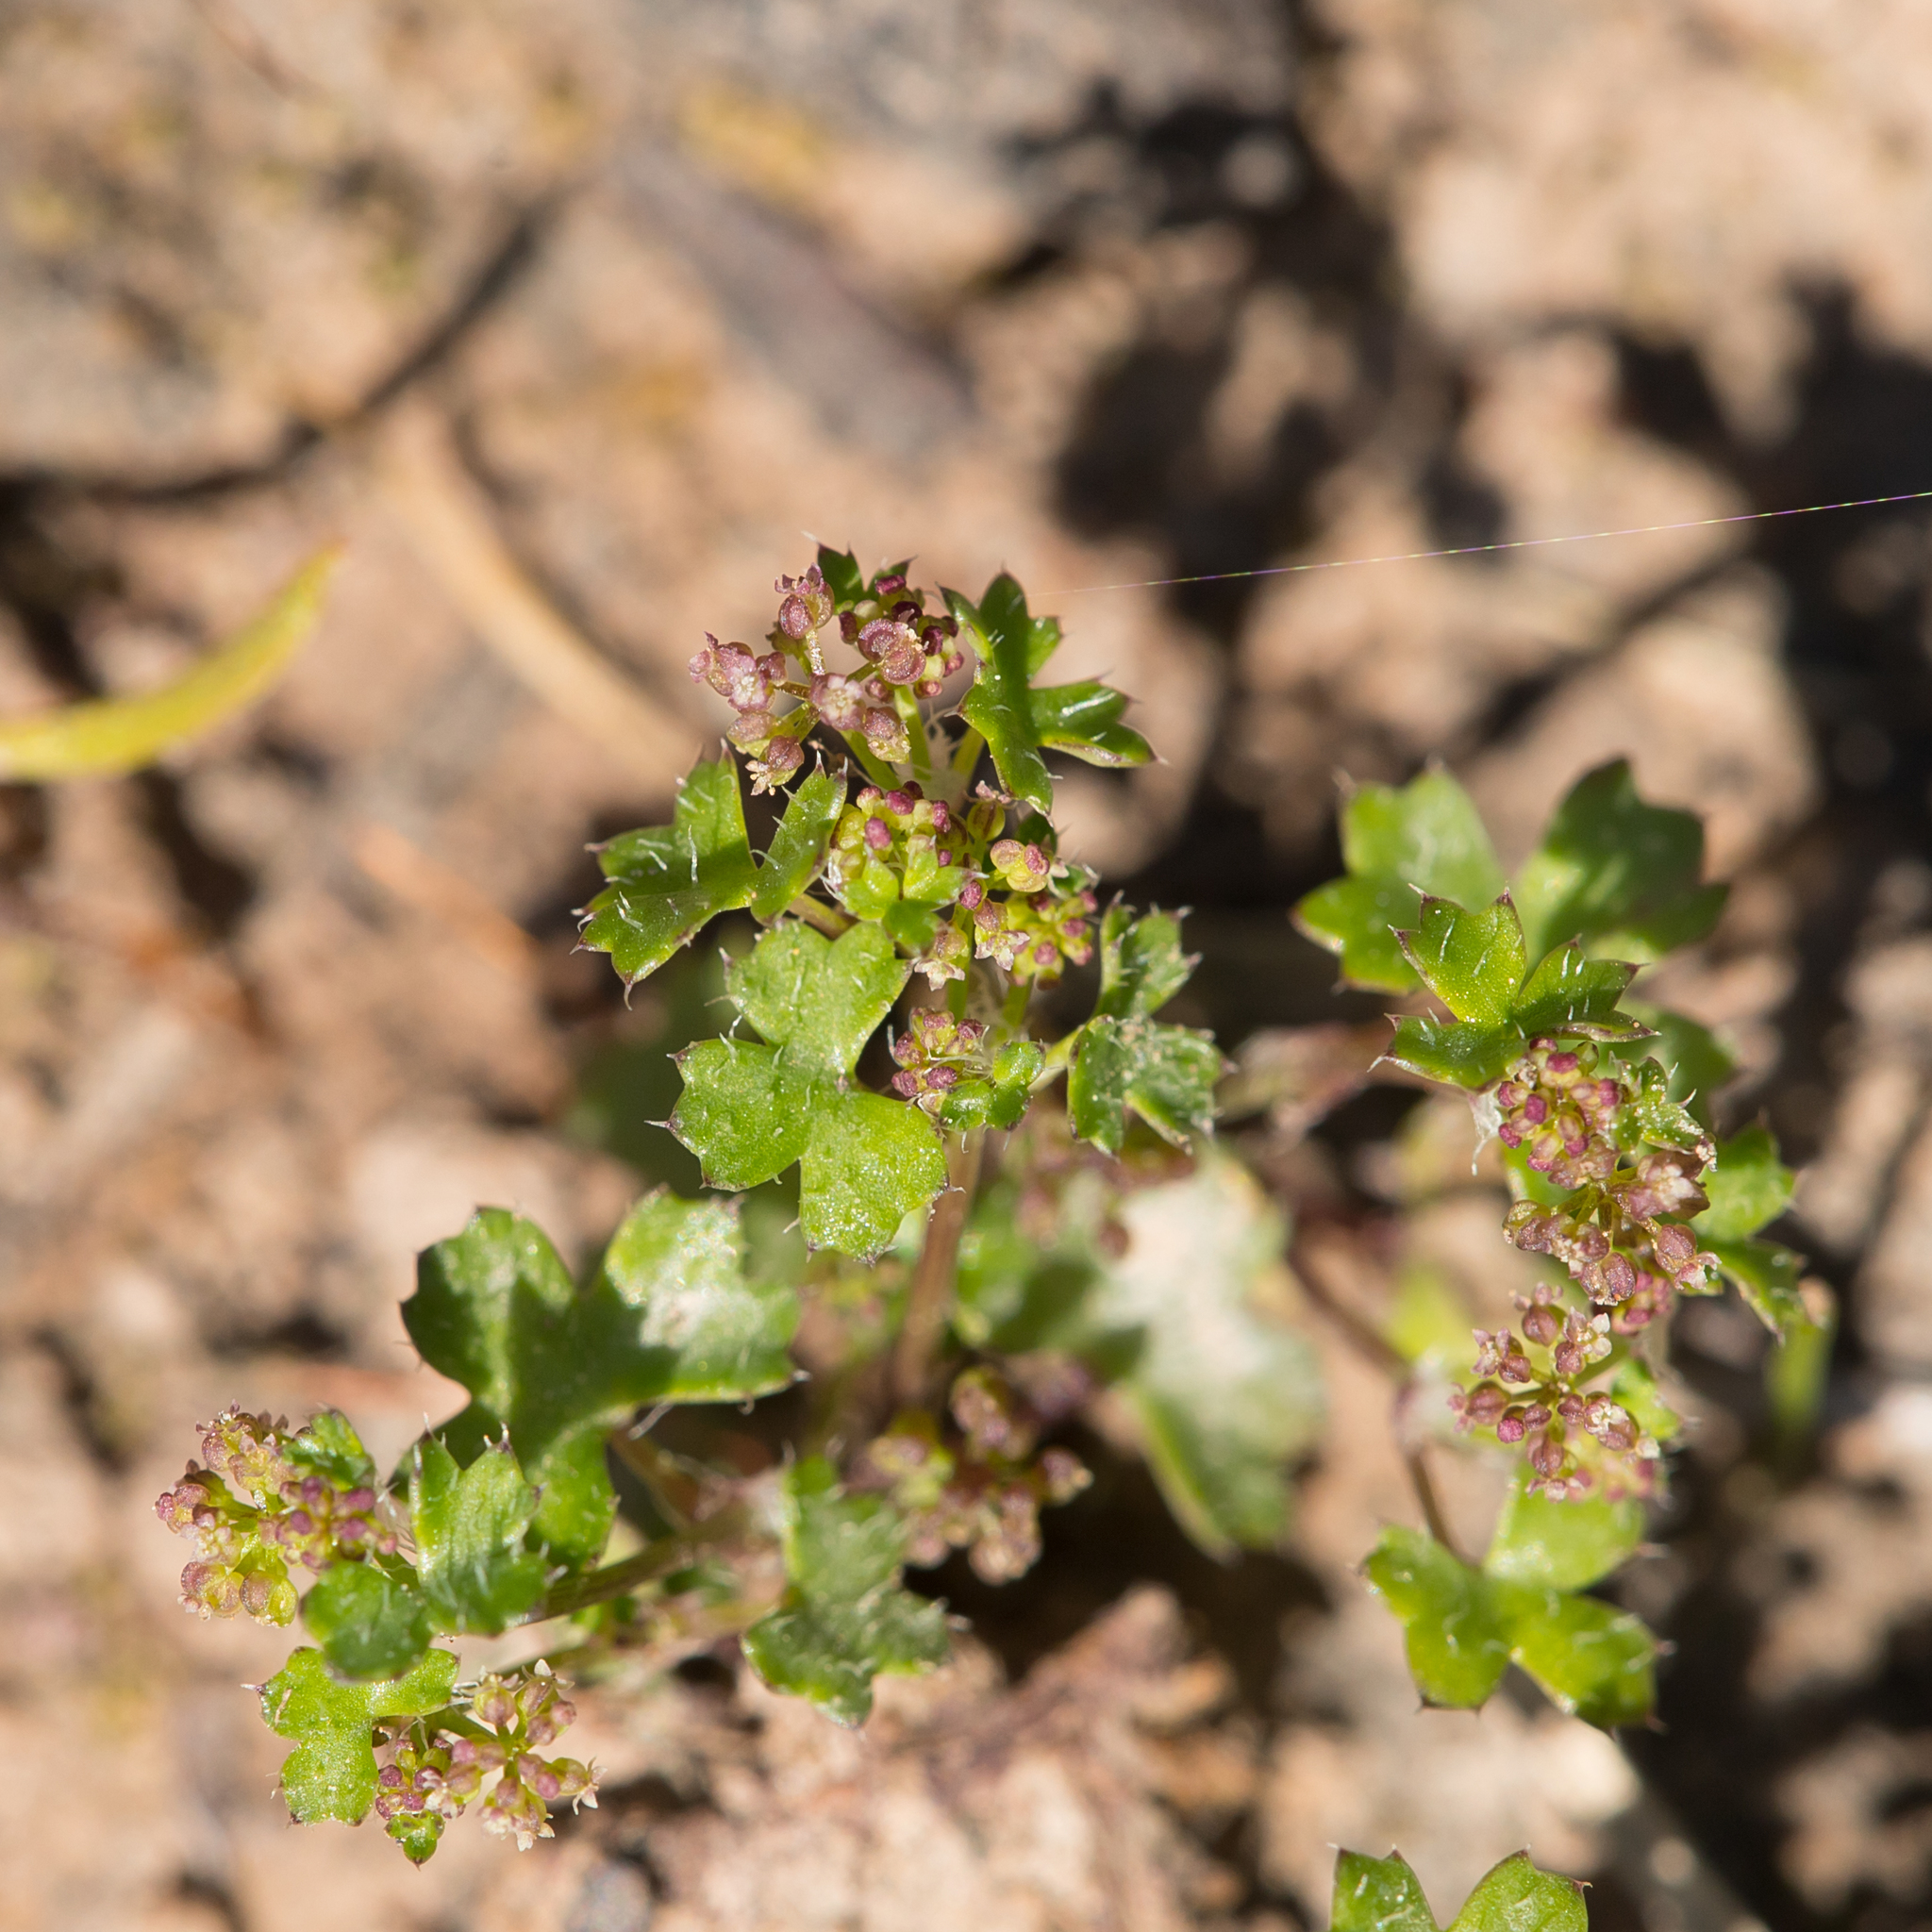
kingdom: Plantae
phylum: Tracheophyta
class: Magnoliopsida
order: Apiales
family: Araliaceae
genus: Hydrocotyle
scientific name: Hydrocotyle callicarpa
